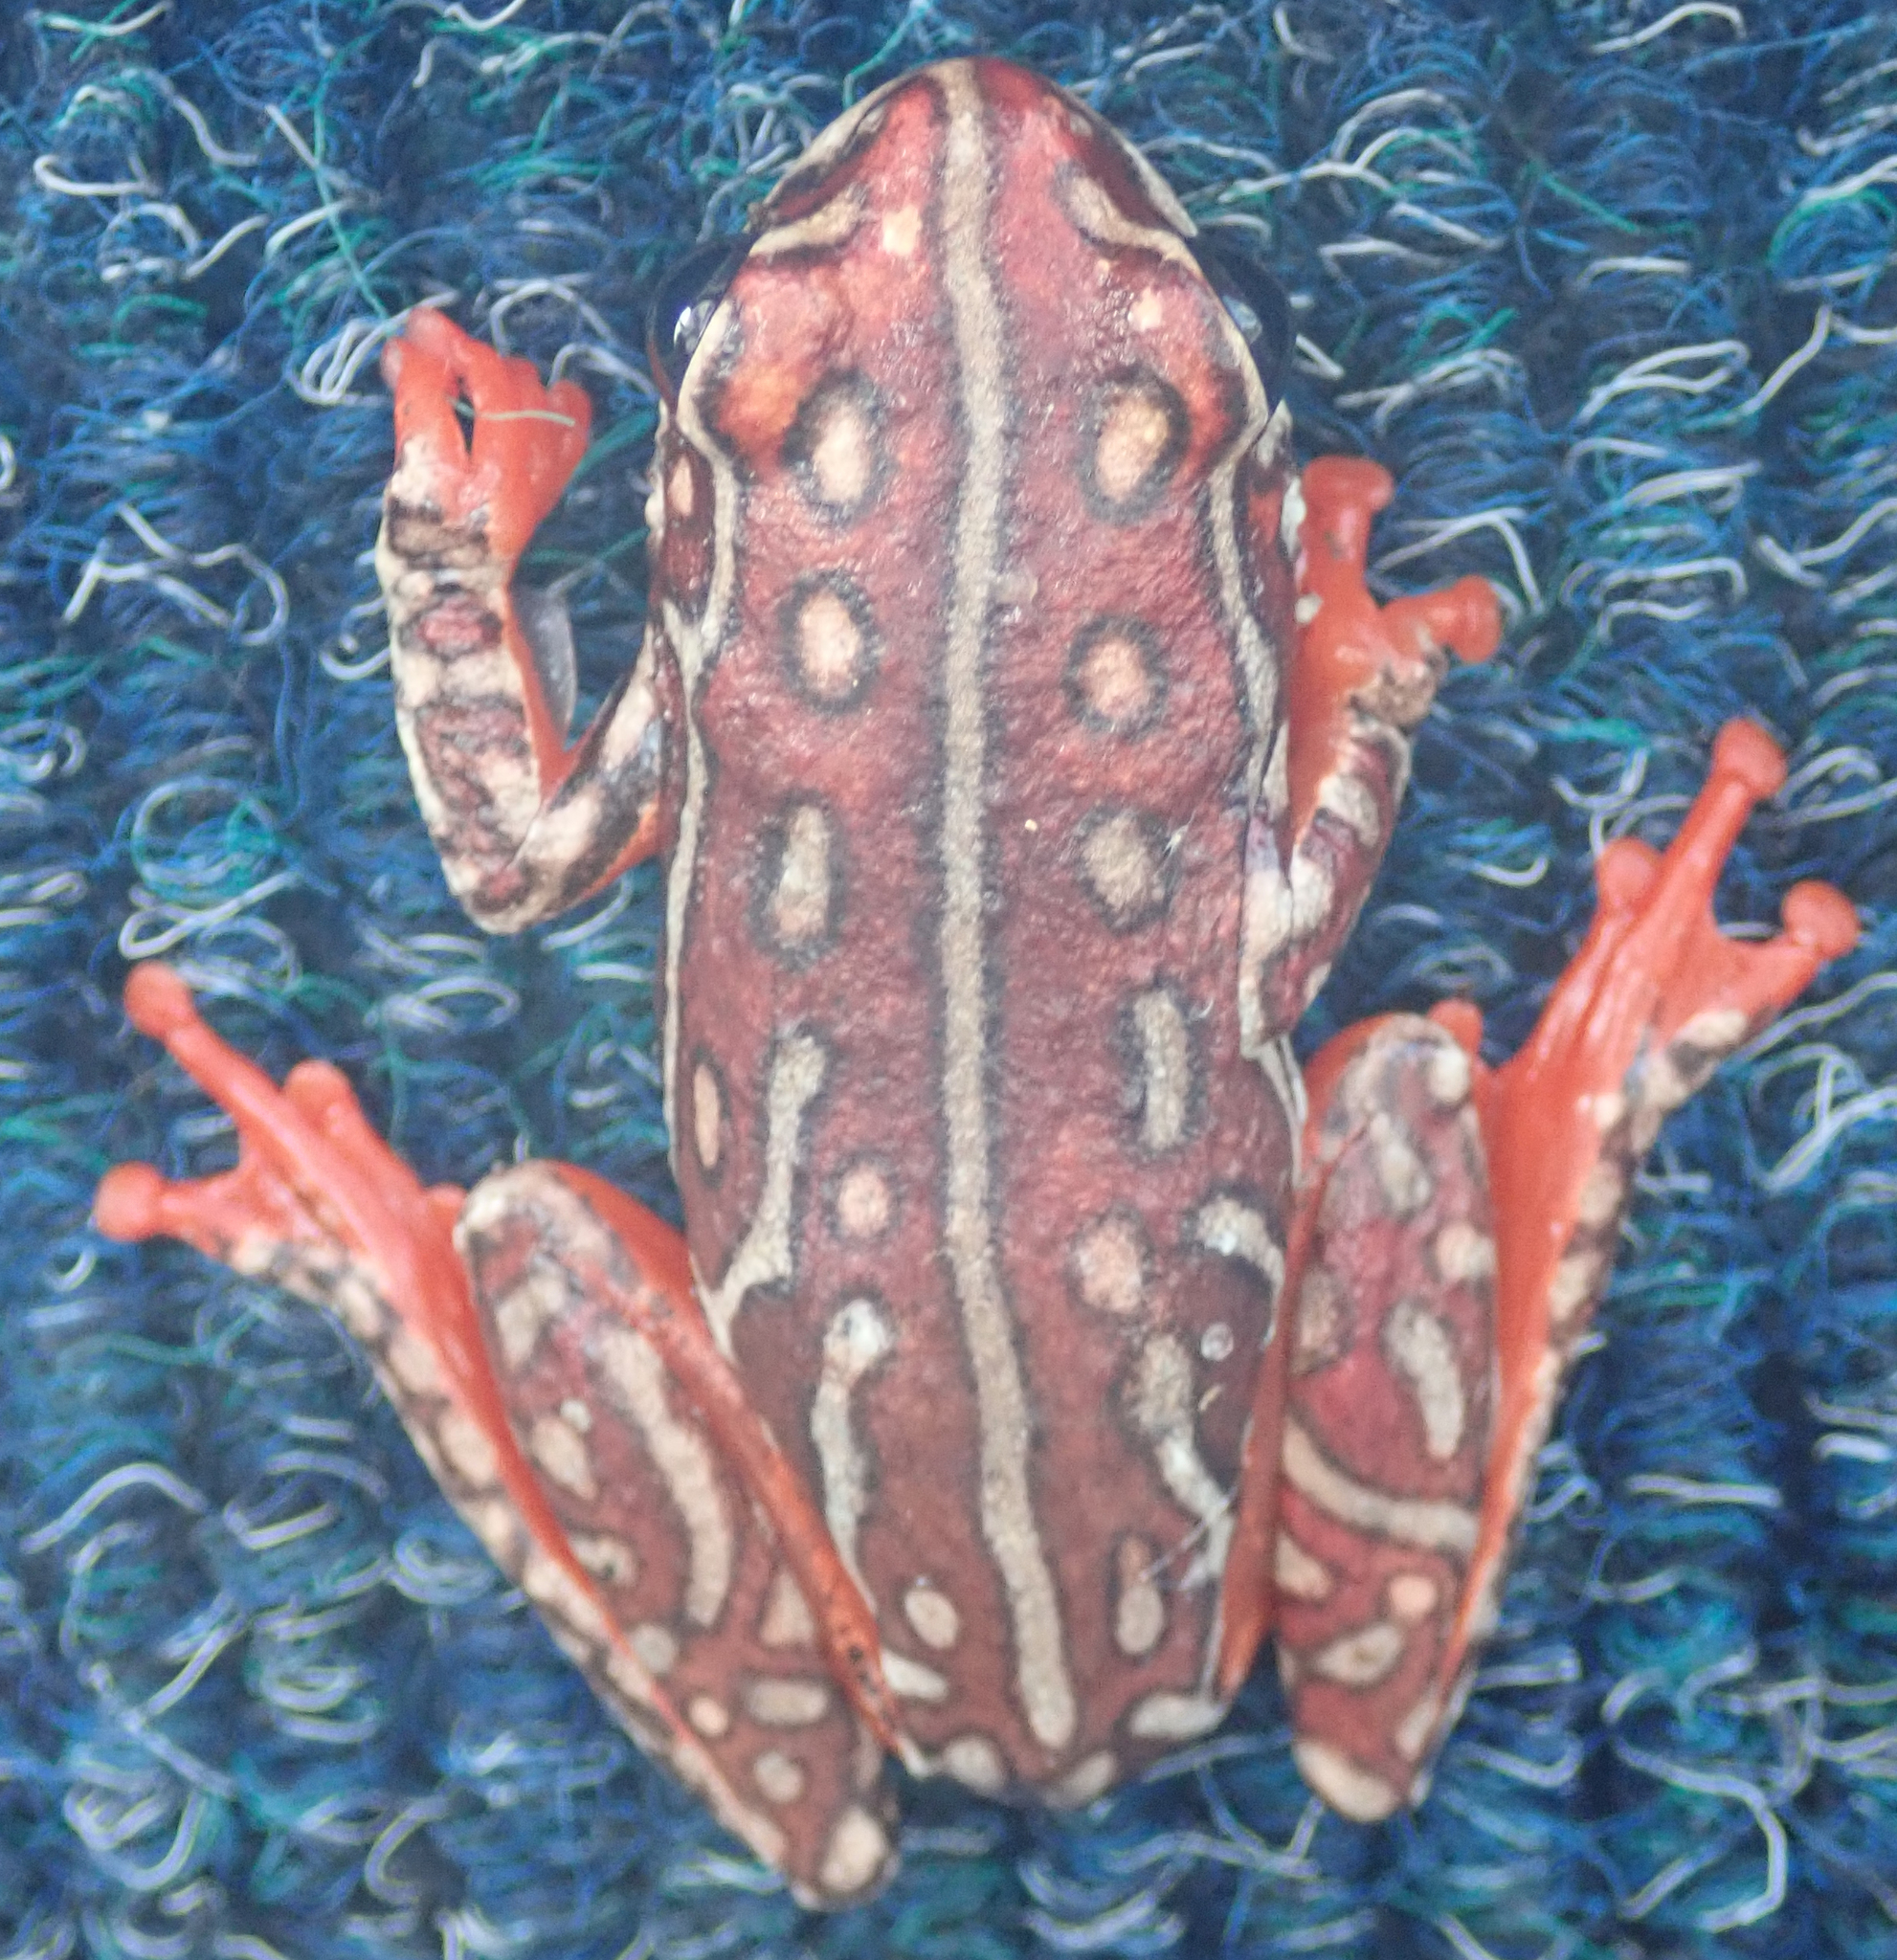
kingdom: Animalia
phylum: Chordata
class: Amphibia
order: Anura
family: Hyperoliidae
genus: Hyperolius
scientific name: Hyperolius parallelus
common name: Angolan reed frog
